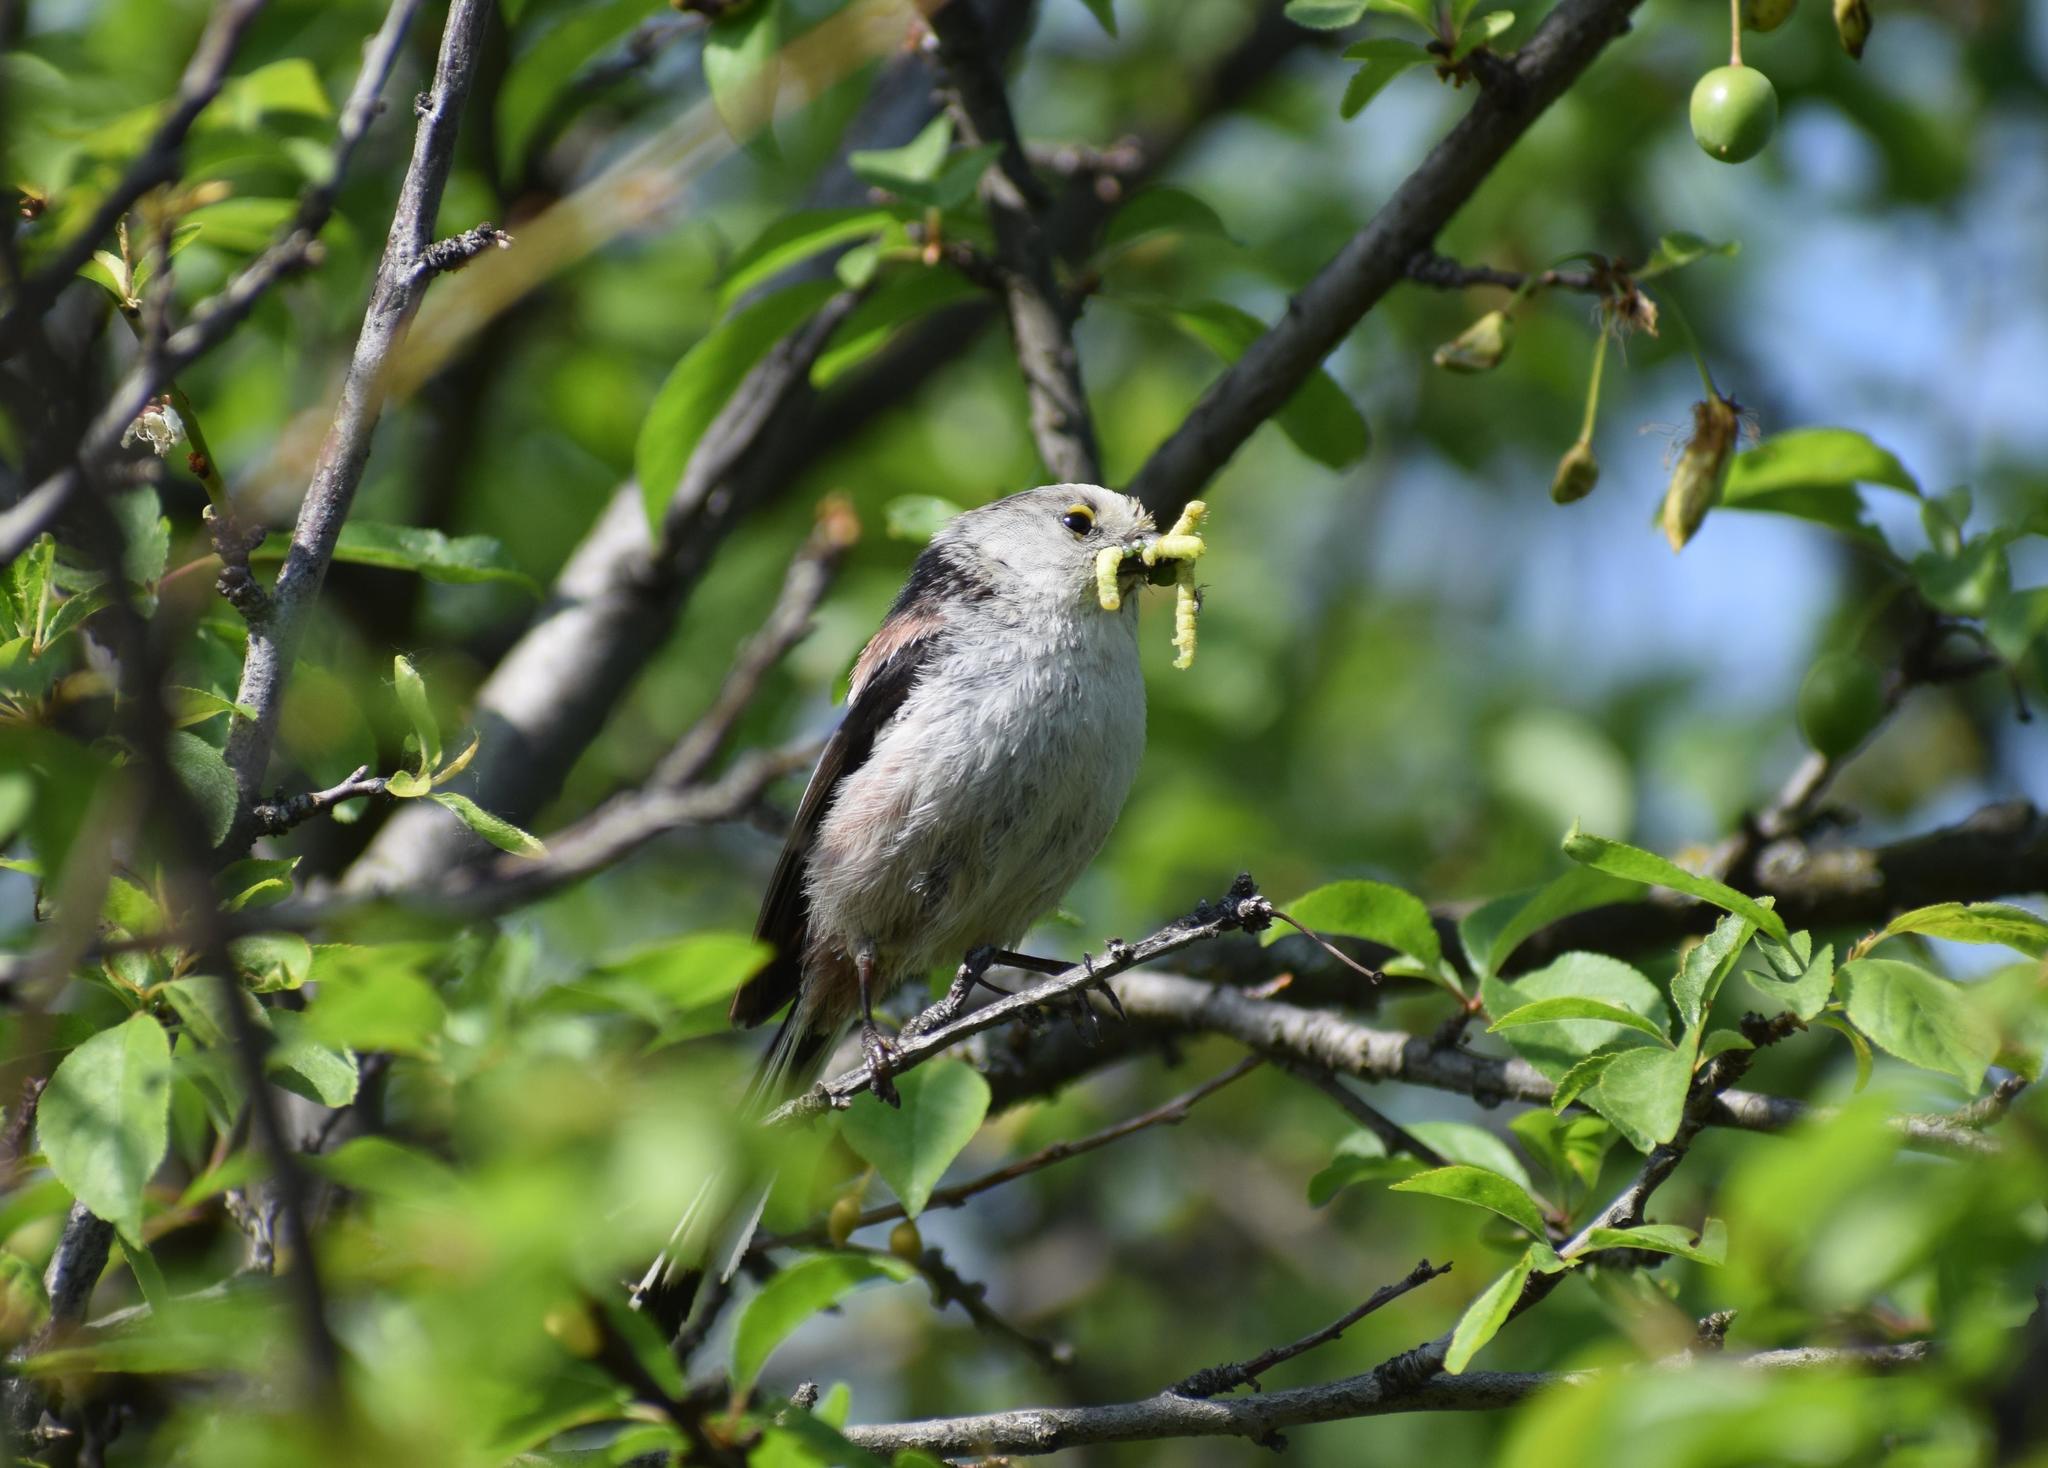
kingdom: Animalia
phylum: Chordata
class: Aves
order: Passeriformes
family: Aegithalidae
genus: Aegithalos
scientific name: Aegithalos caudatus
